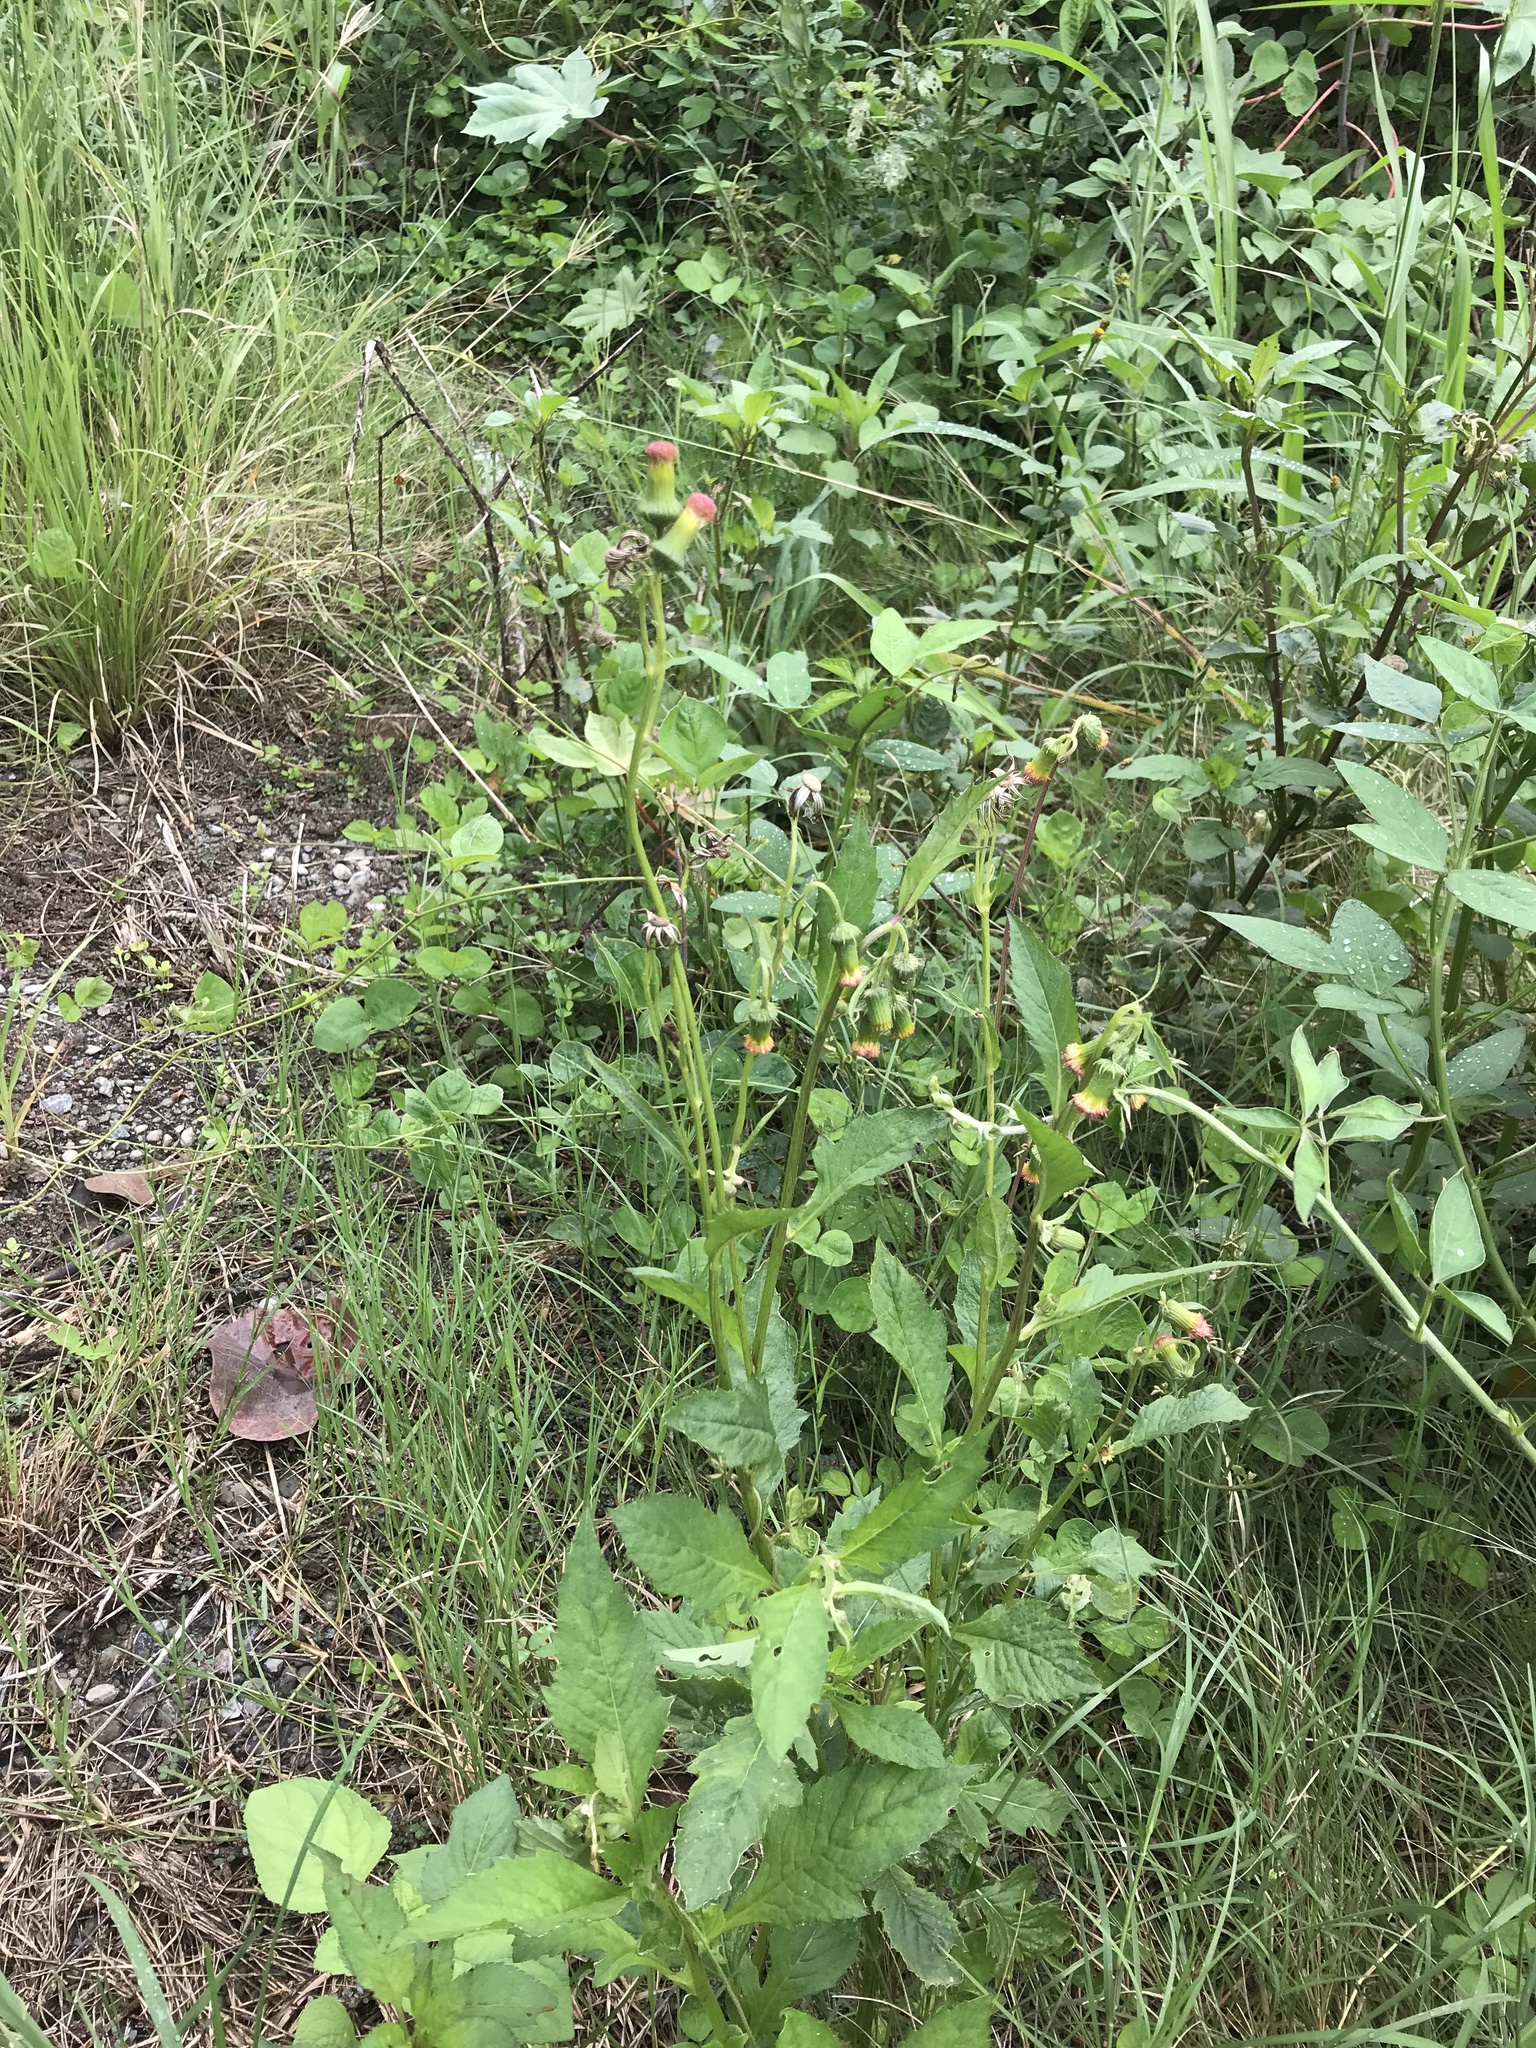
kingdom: Plantae
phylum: Tracheophyta
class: Magnoliopsida
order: Asterales
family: Asteraceae
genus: Crassocephalum
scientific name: Crassocephalum crepidioides
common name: Redflower ragleaf
